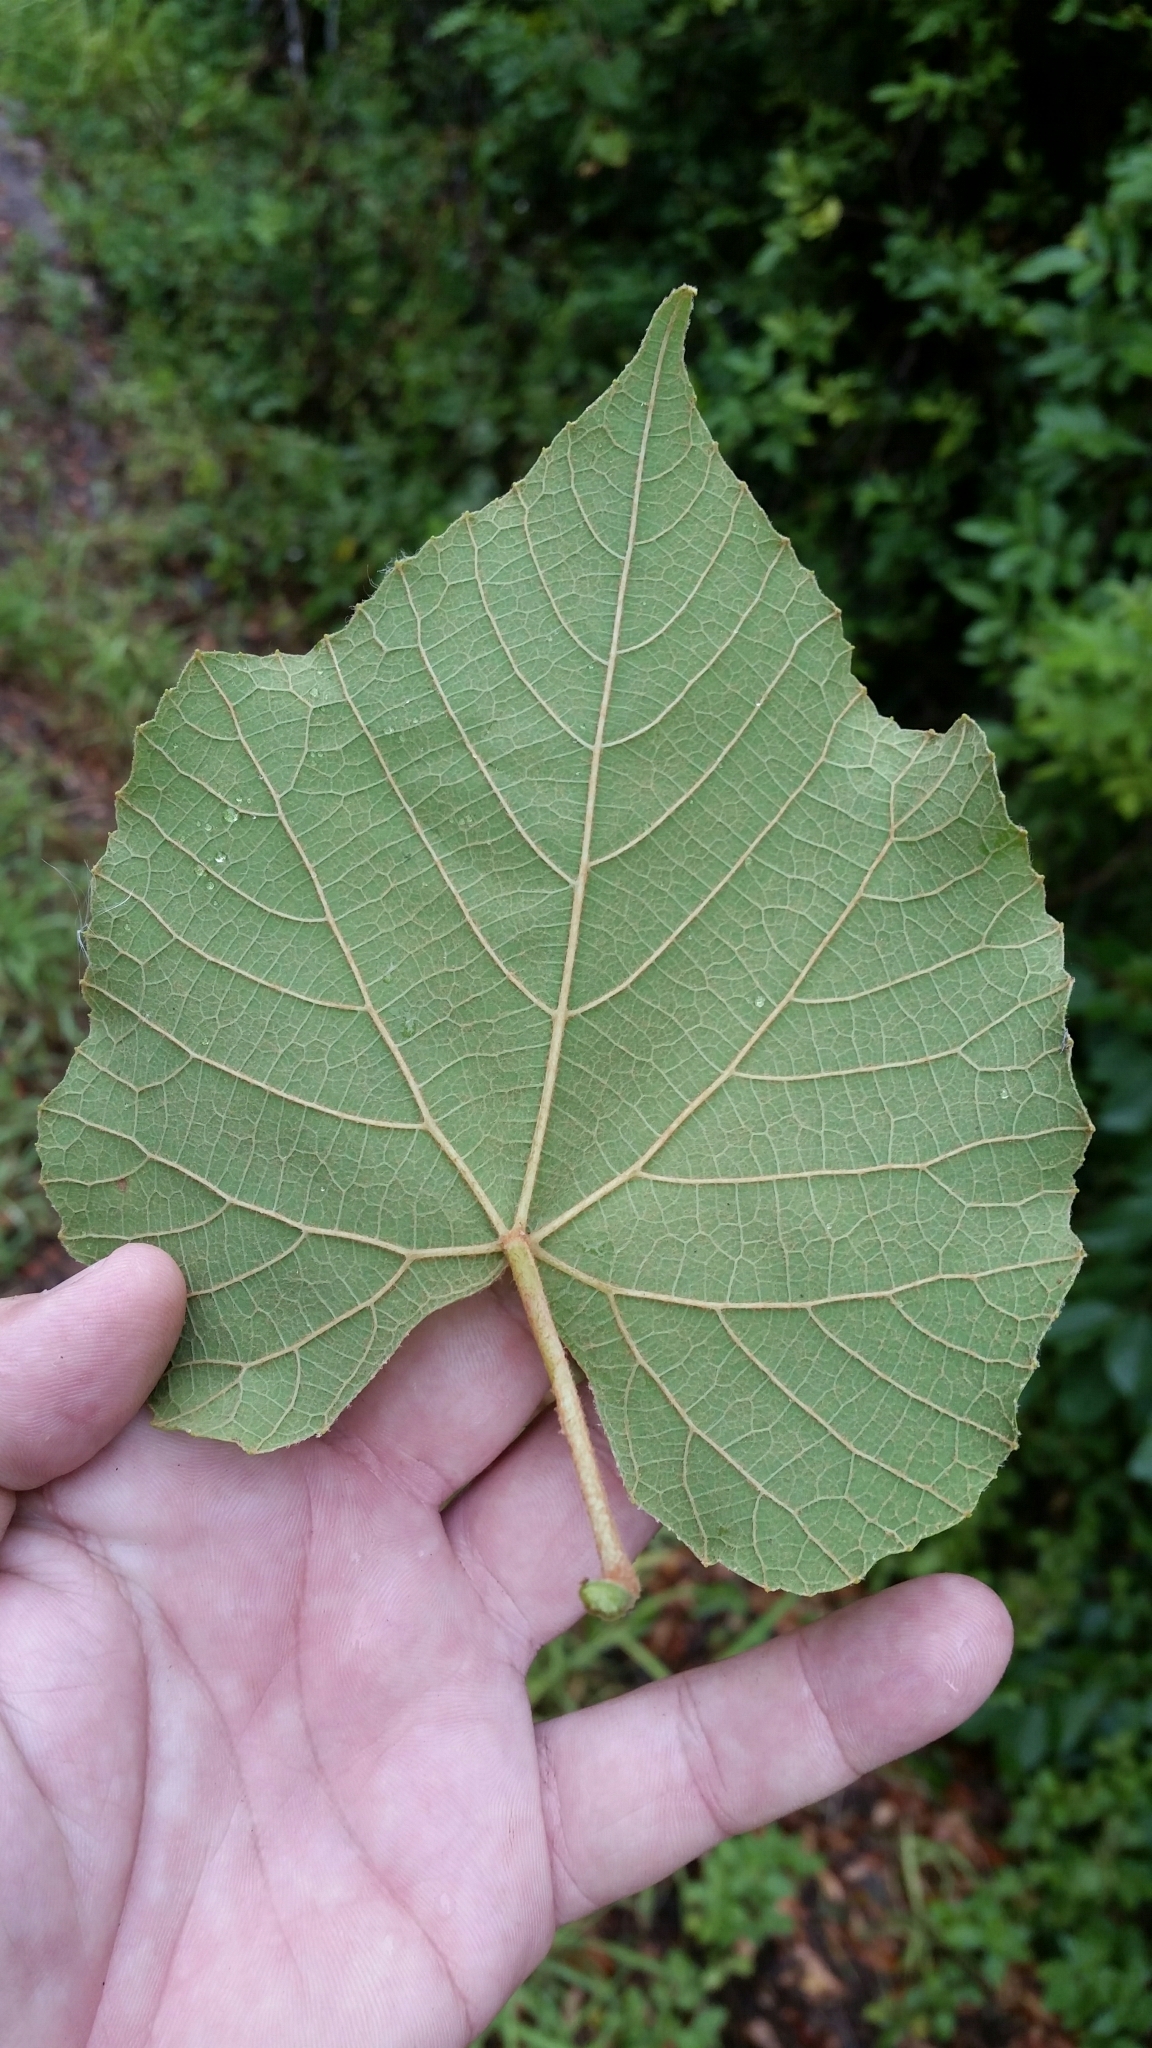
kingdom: Plantae
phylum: Tracheophyta
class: Magnoliopsida
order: Vitales
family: Vitaceae
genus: Vitis
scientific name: Vitis cinerea
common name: Ashy grape
